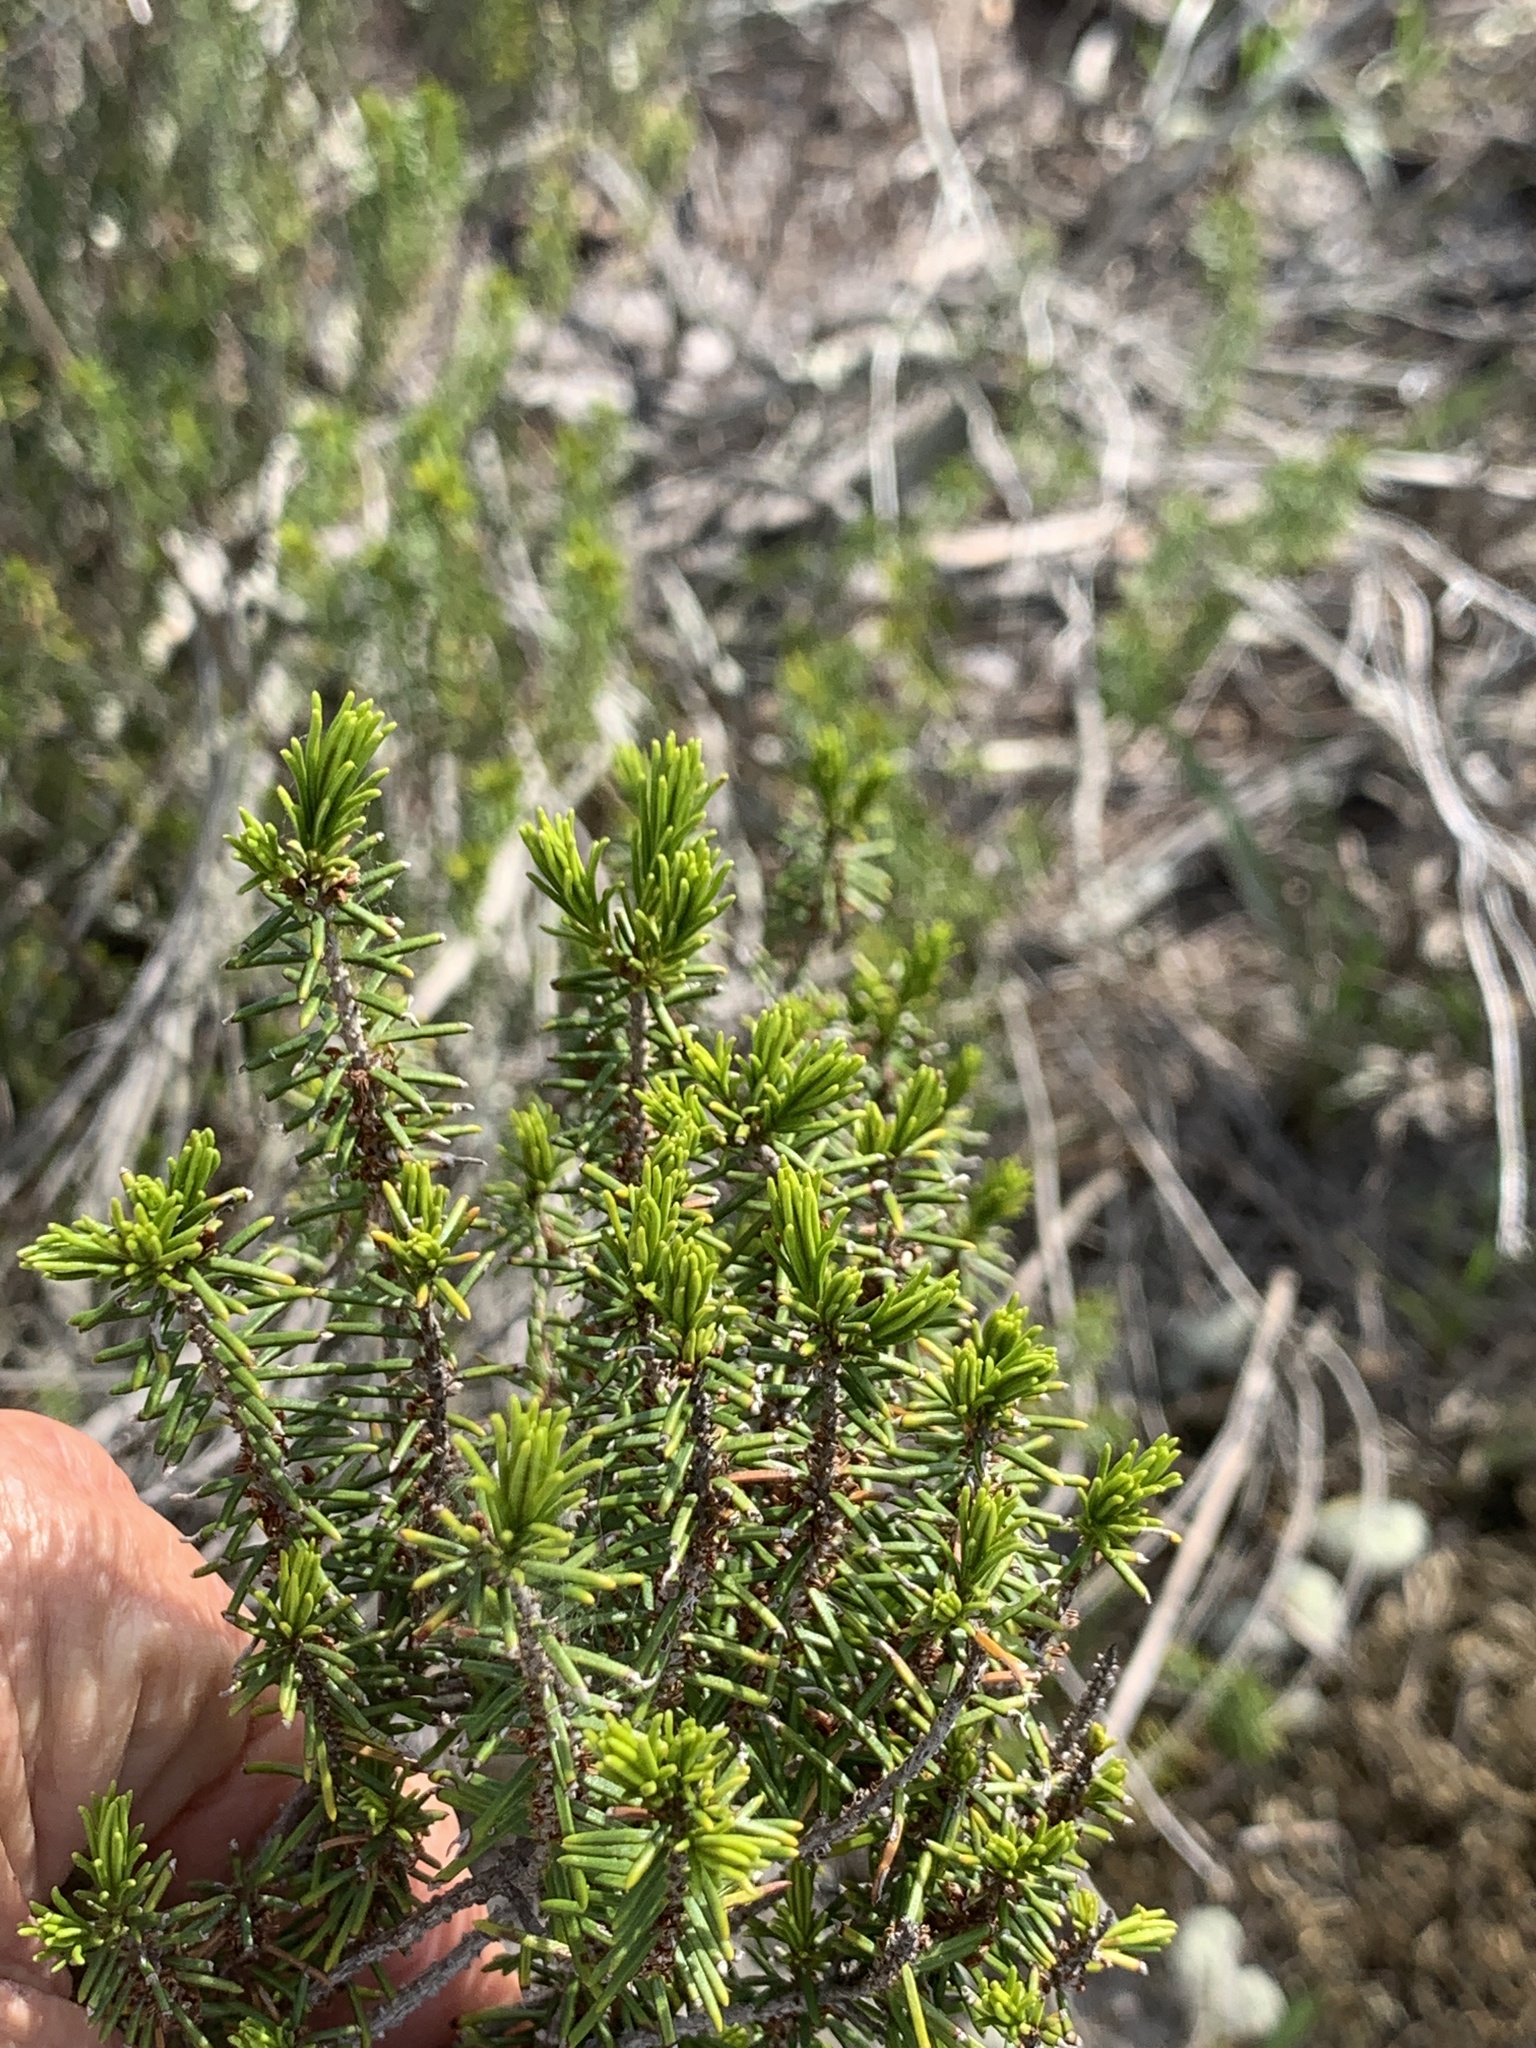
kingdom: Plantae
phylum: Tracheophyta
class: Magnoliopsida
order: Ericales
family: Ericaceae
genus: Ceratiola
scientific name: Ceratiola ericoides
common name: Sandhill-rosemary
